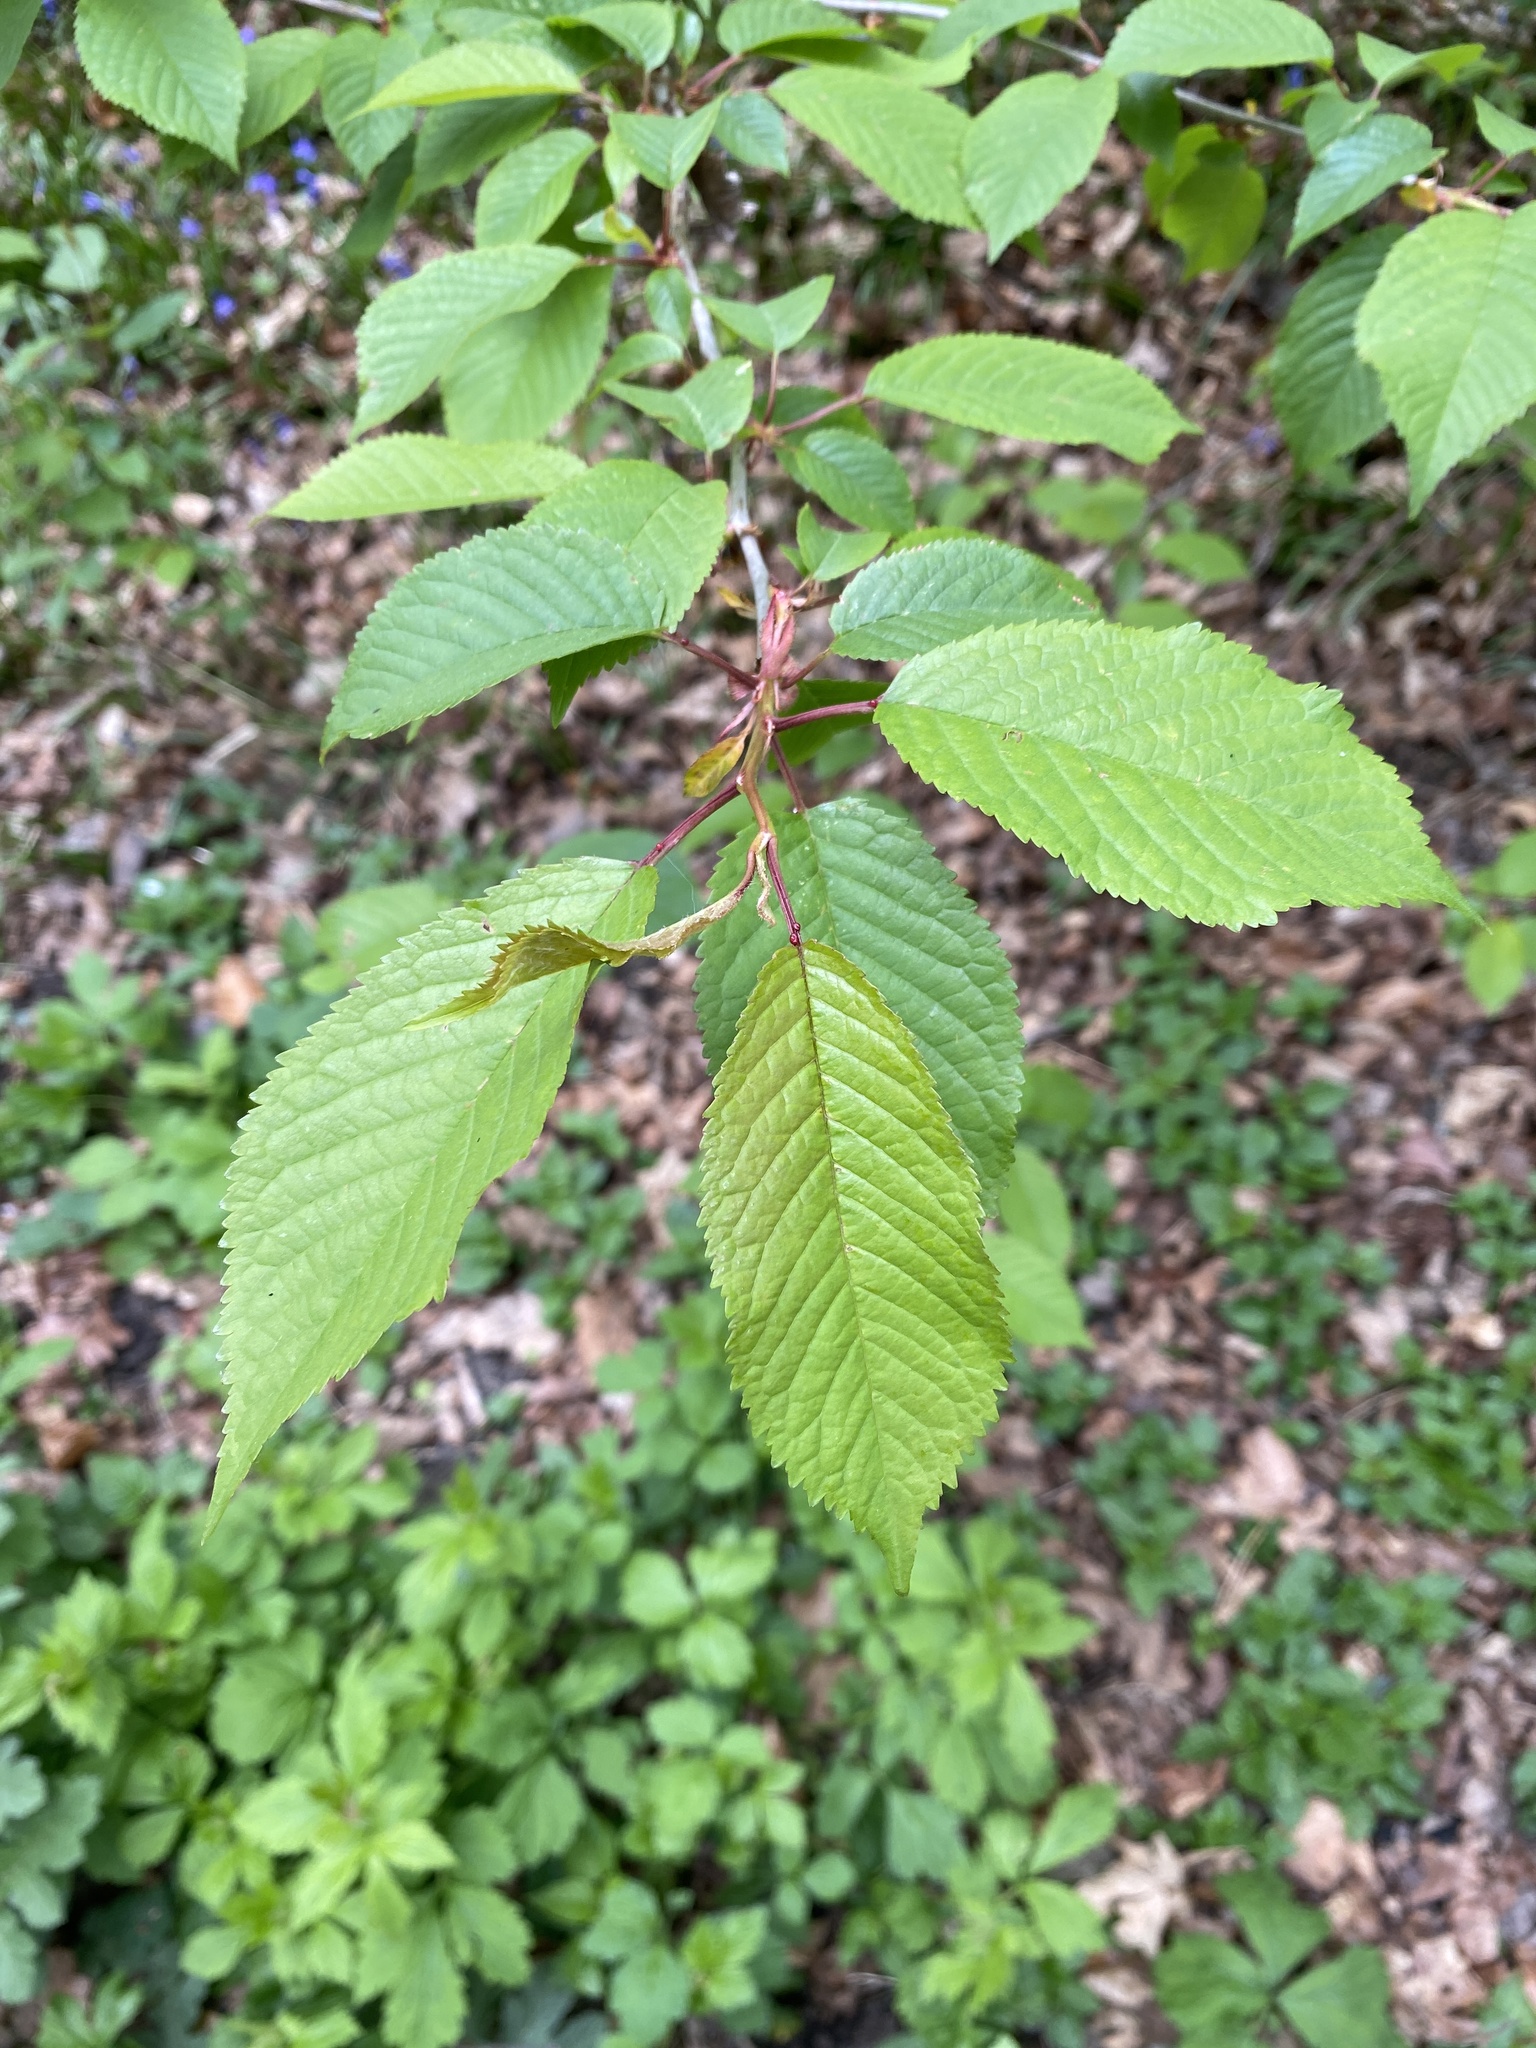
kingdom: Plantae
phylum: Tracheophyta
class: Magnoliopsida
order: Rosales
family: Rosaceae
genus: Prunus
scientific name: Prunus avium
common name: Sweet cherry
